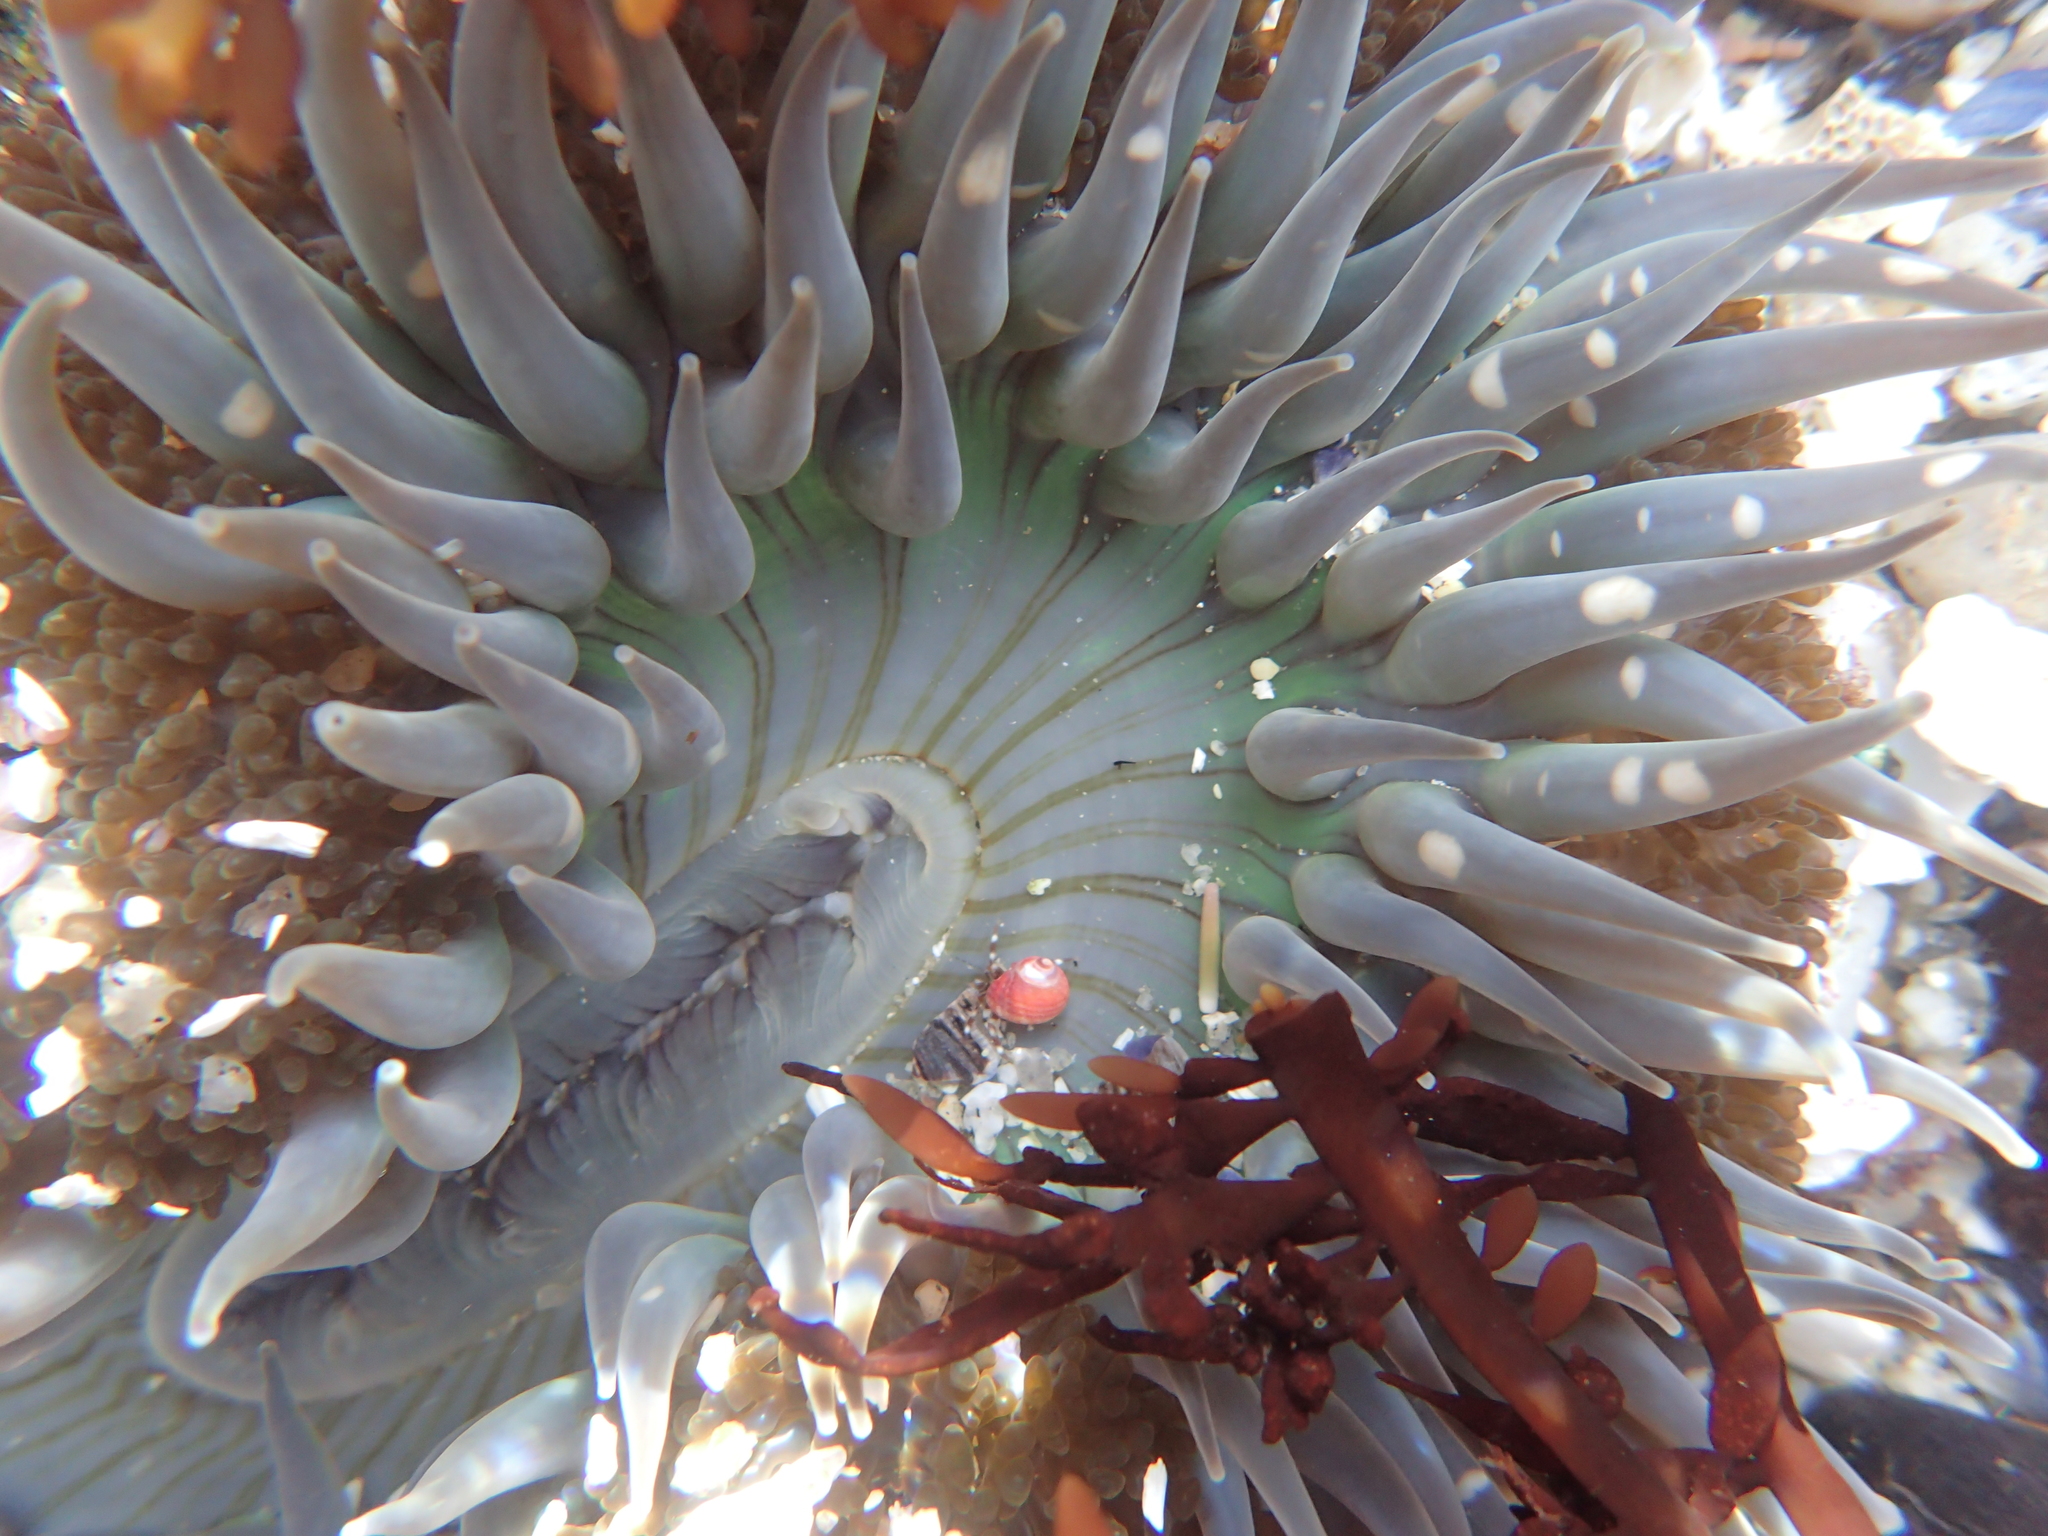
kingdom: Animalia
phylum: Cnidaria
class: Anthozoa
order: Actiniaria
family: Actiniidae
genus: Anthopleura
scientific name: Anthopleura sola
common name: Sun anemone
